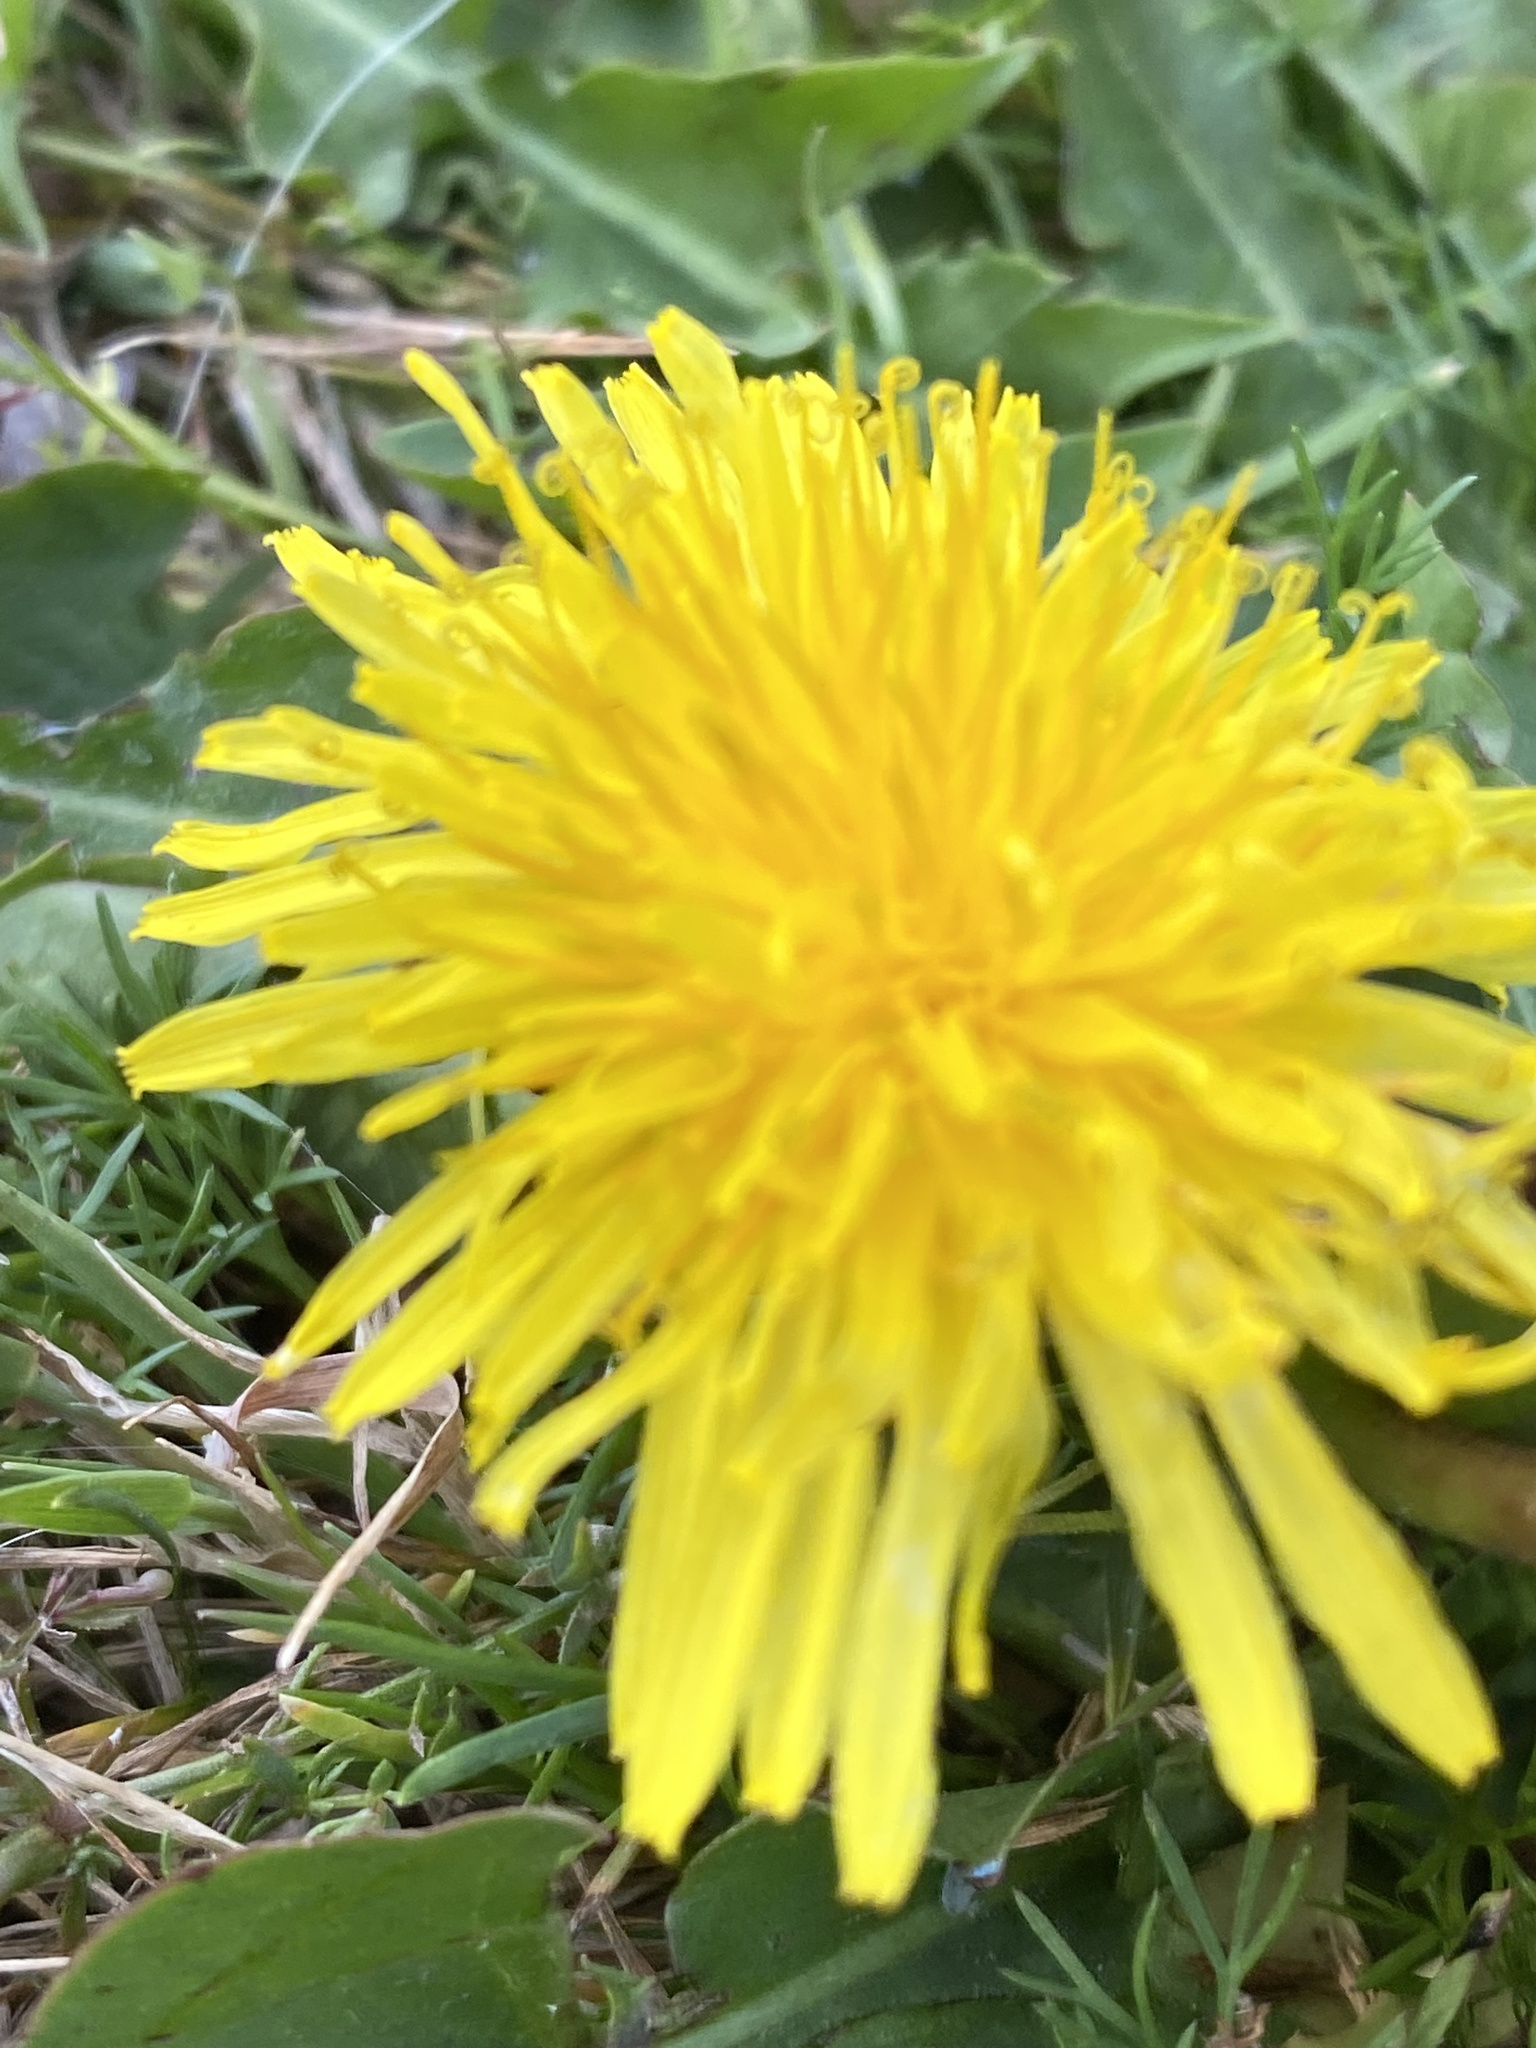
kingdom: Plantae
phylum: Tracheophyta
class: Magnoliopsida
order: Asterales
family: Asteraceae
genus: Taraxacum
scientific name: Taraxacum officinale
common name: Common dandelion
